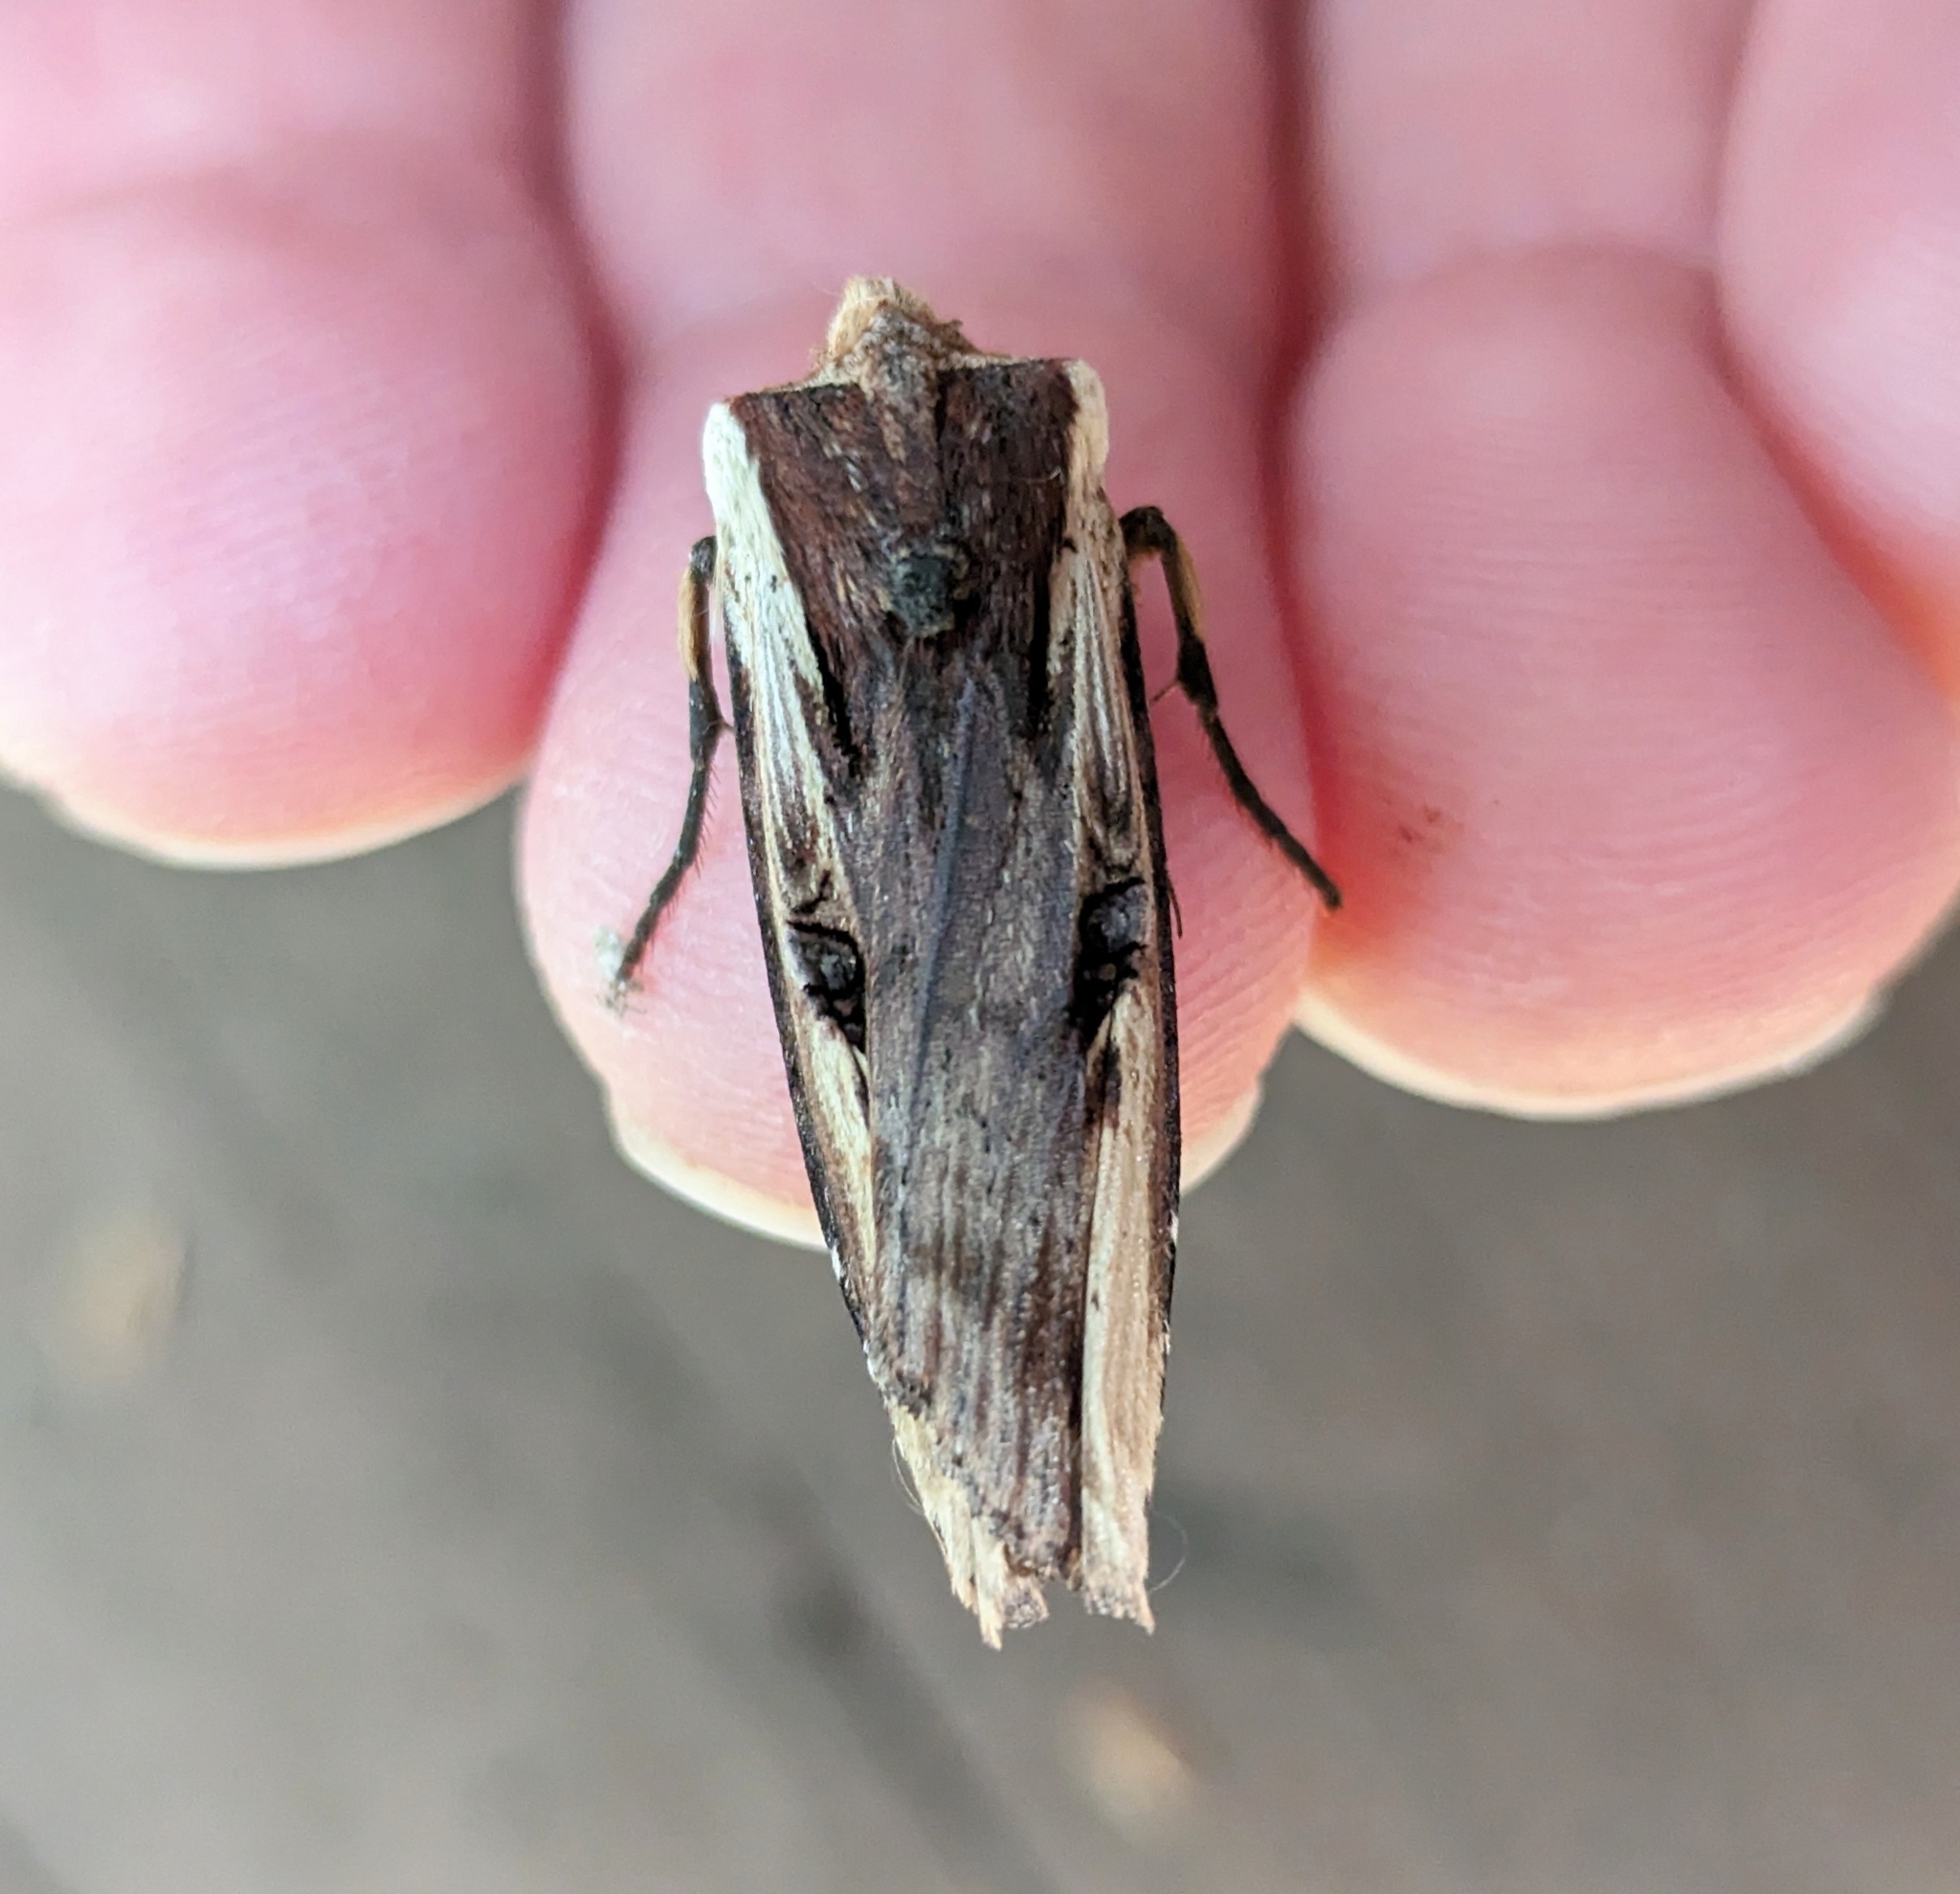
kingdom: Animalia
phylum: Arthropoda
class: Insecta
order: Lepidoptera
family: Noctuidae
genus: Xylena
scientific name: Xylena curvimacula
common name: Dot-and-dash swordgrass moth
